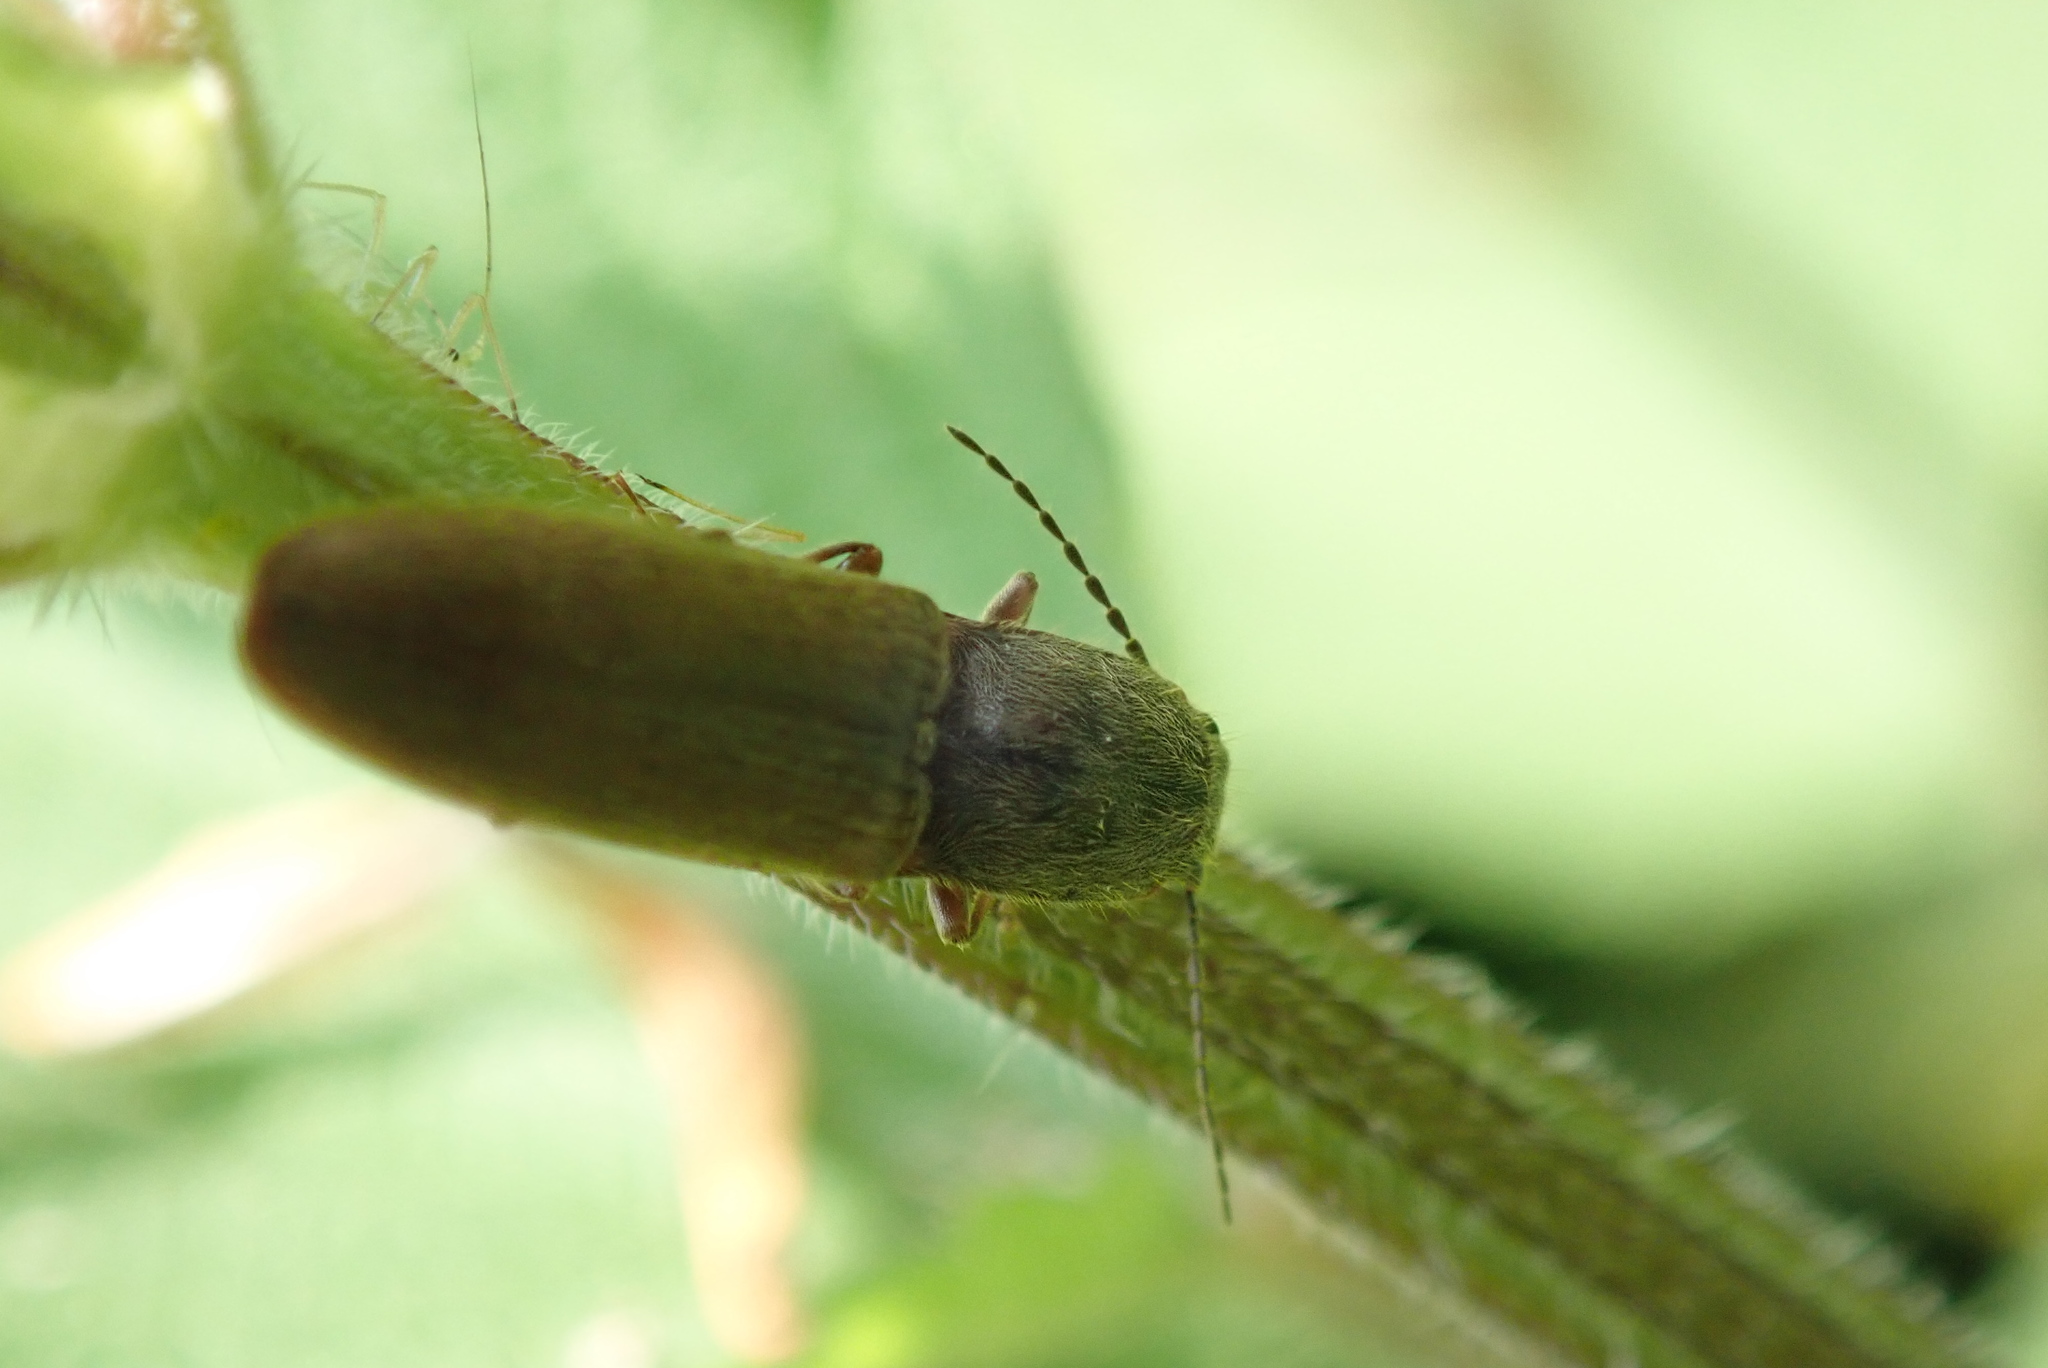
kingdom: Animalia
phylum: Arthropoda
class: Insecta
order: Coleoptera
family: Elateridae
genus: Athous
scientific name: Athous haemorrhoidalis
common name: Red-brown click beetle
